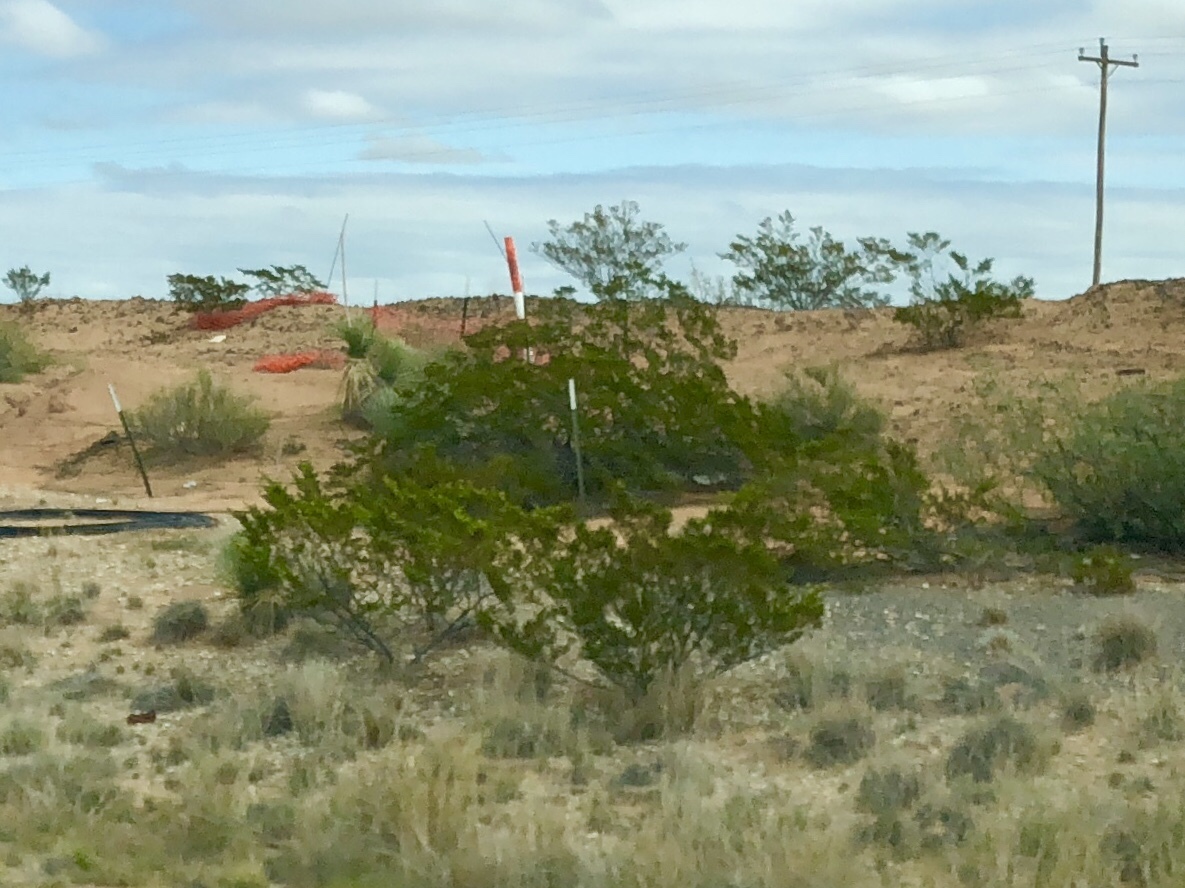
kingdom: Plantae
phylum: Tracheophyta
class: Magnoliopsida
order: Zygophyllales
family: Zygophyllaceae
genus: Larrea
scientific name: Larrea tridentata
